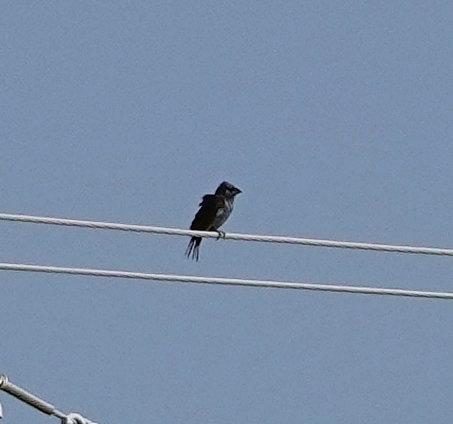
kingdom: Animalia
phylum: Chordata
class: Aves
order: Passeriformes
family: Cardinalidae
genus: Passerina
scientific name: Passerina caerulea
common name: Blue grosbeak
